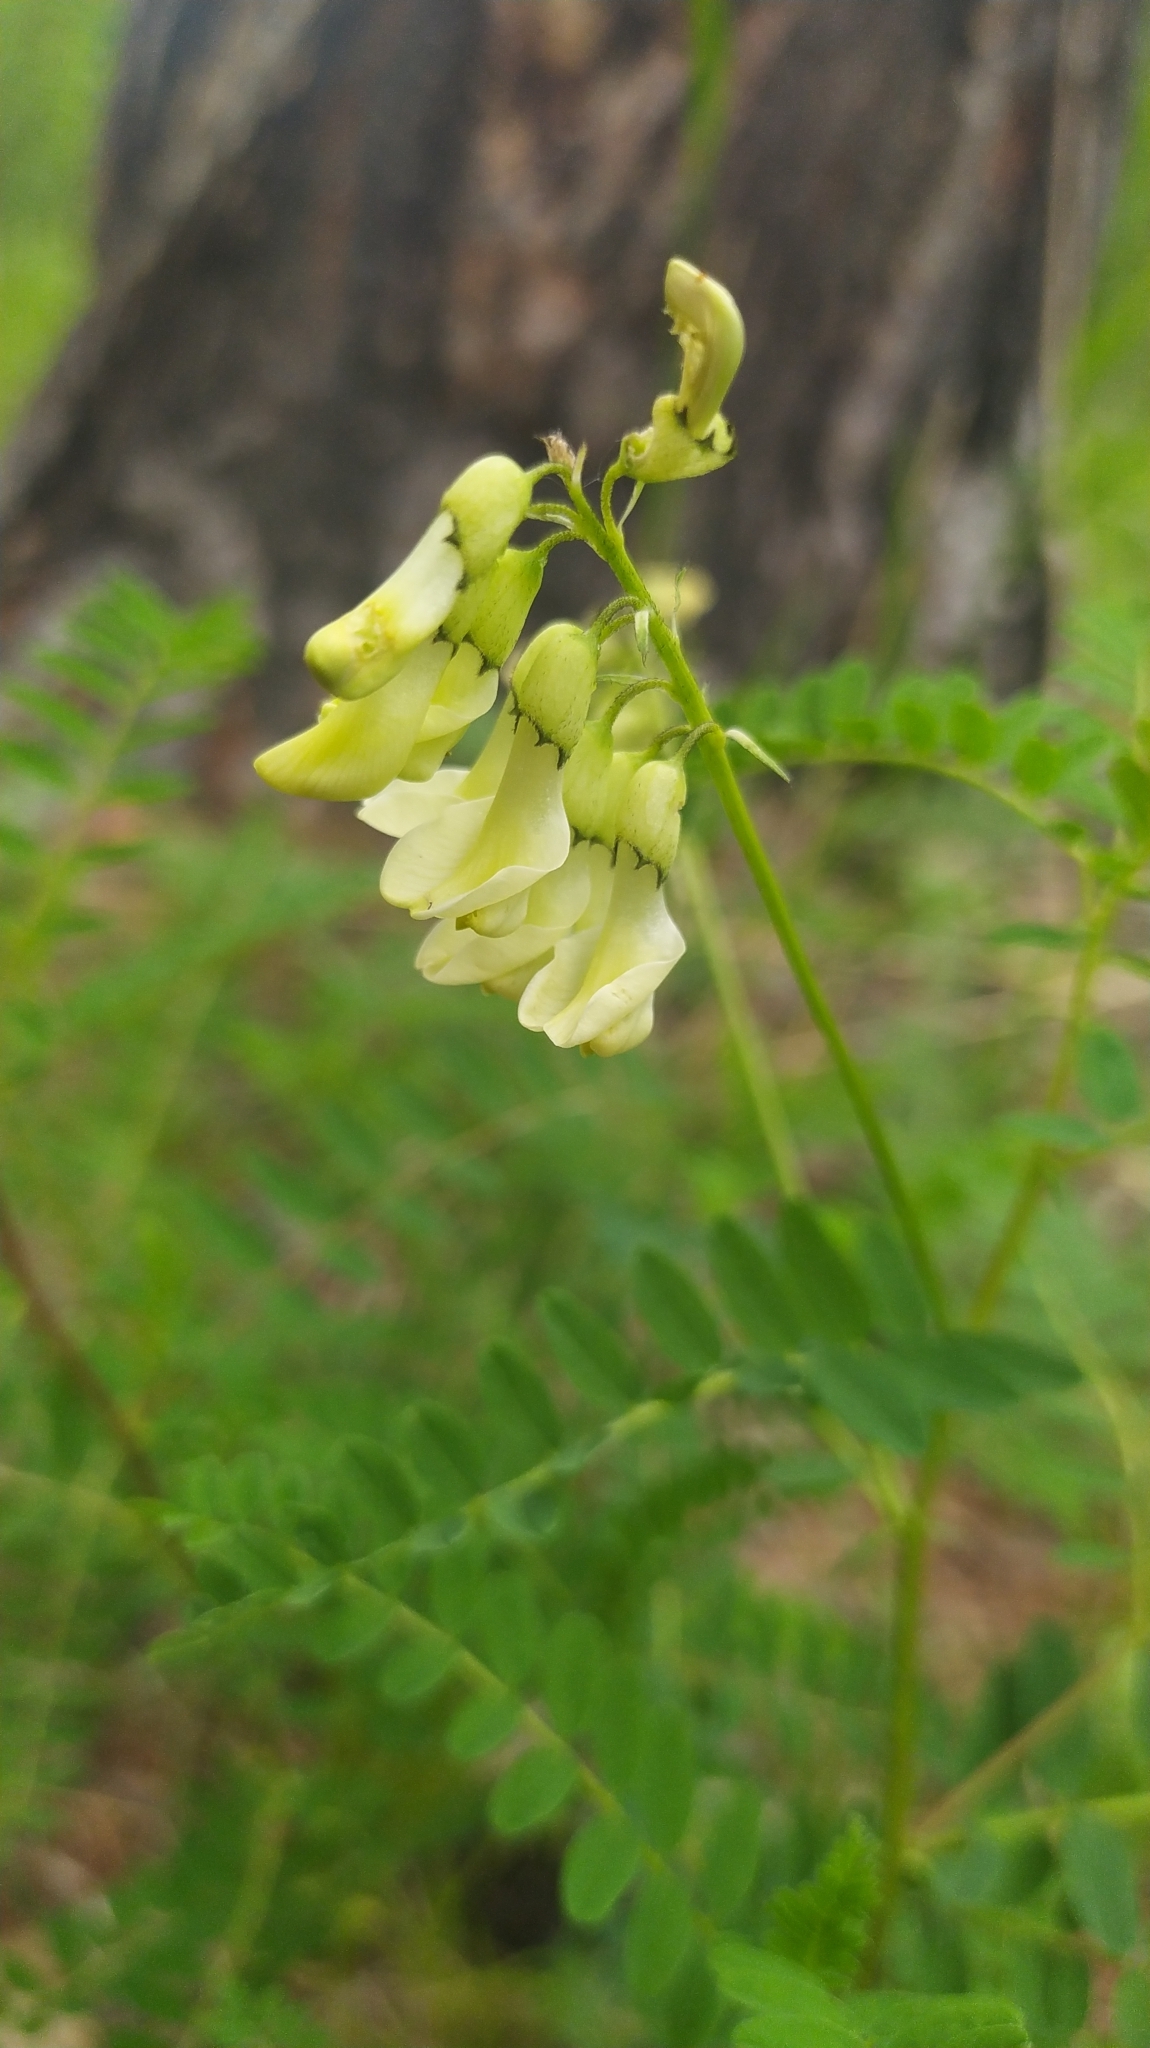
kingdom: Plantae
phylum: Tracheophyta
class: Magnoliopsida
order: Fabales
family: Fabaceae
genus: Astragalus
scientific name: Astragalus
